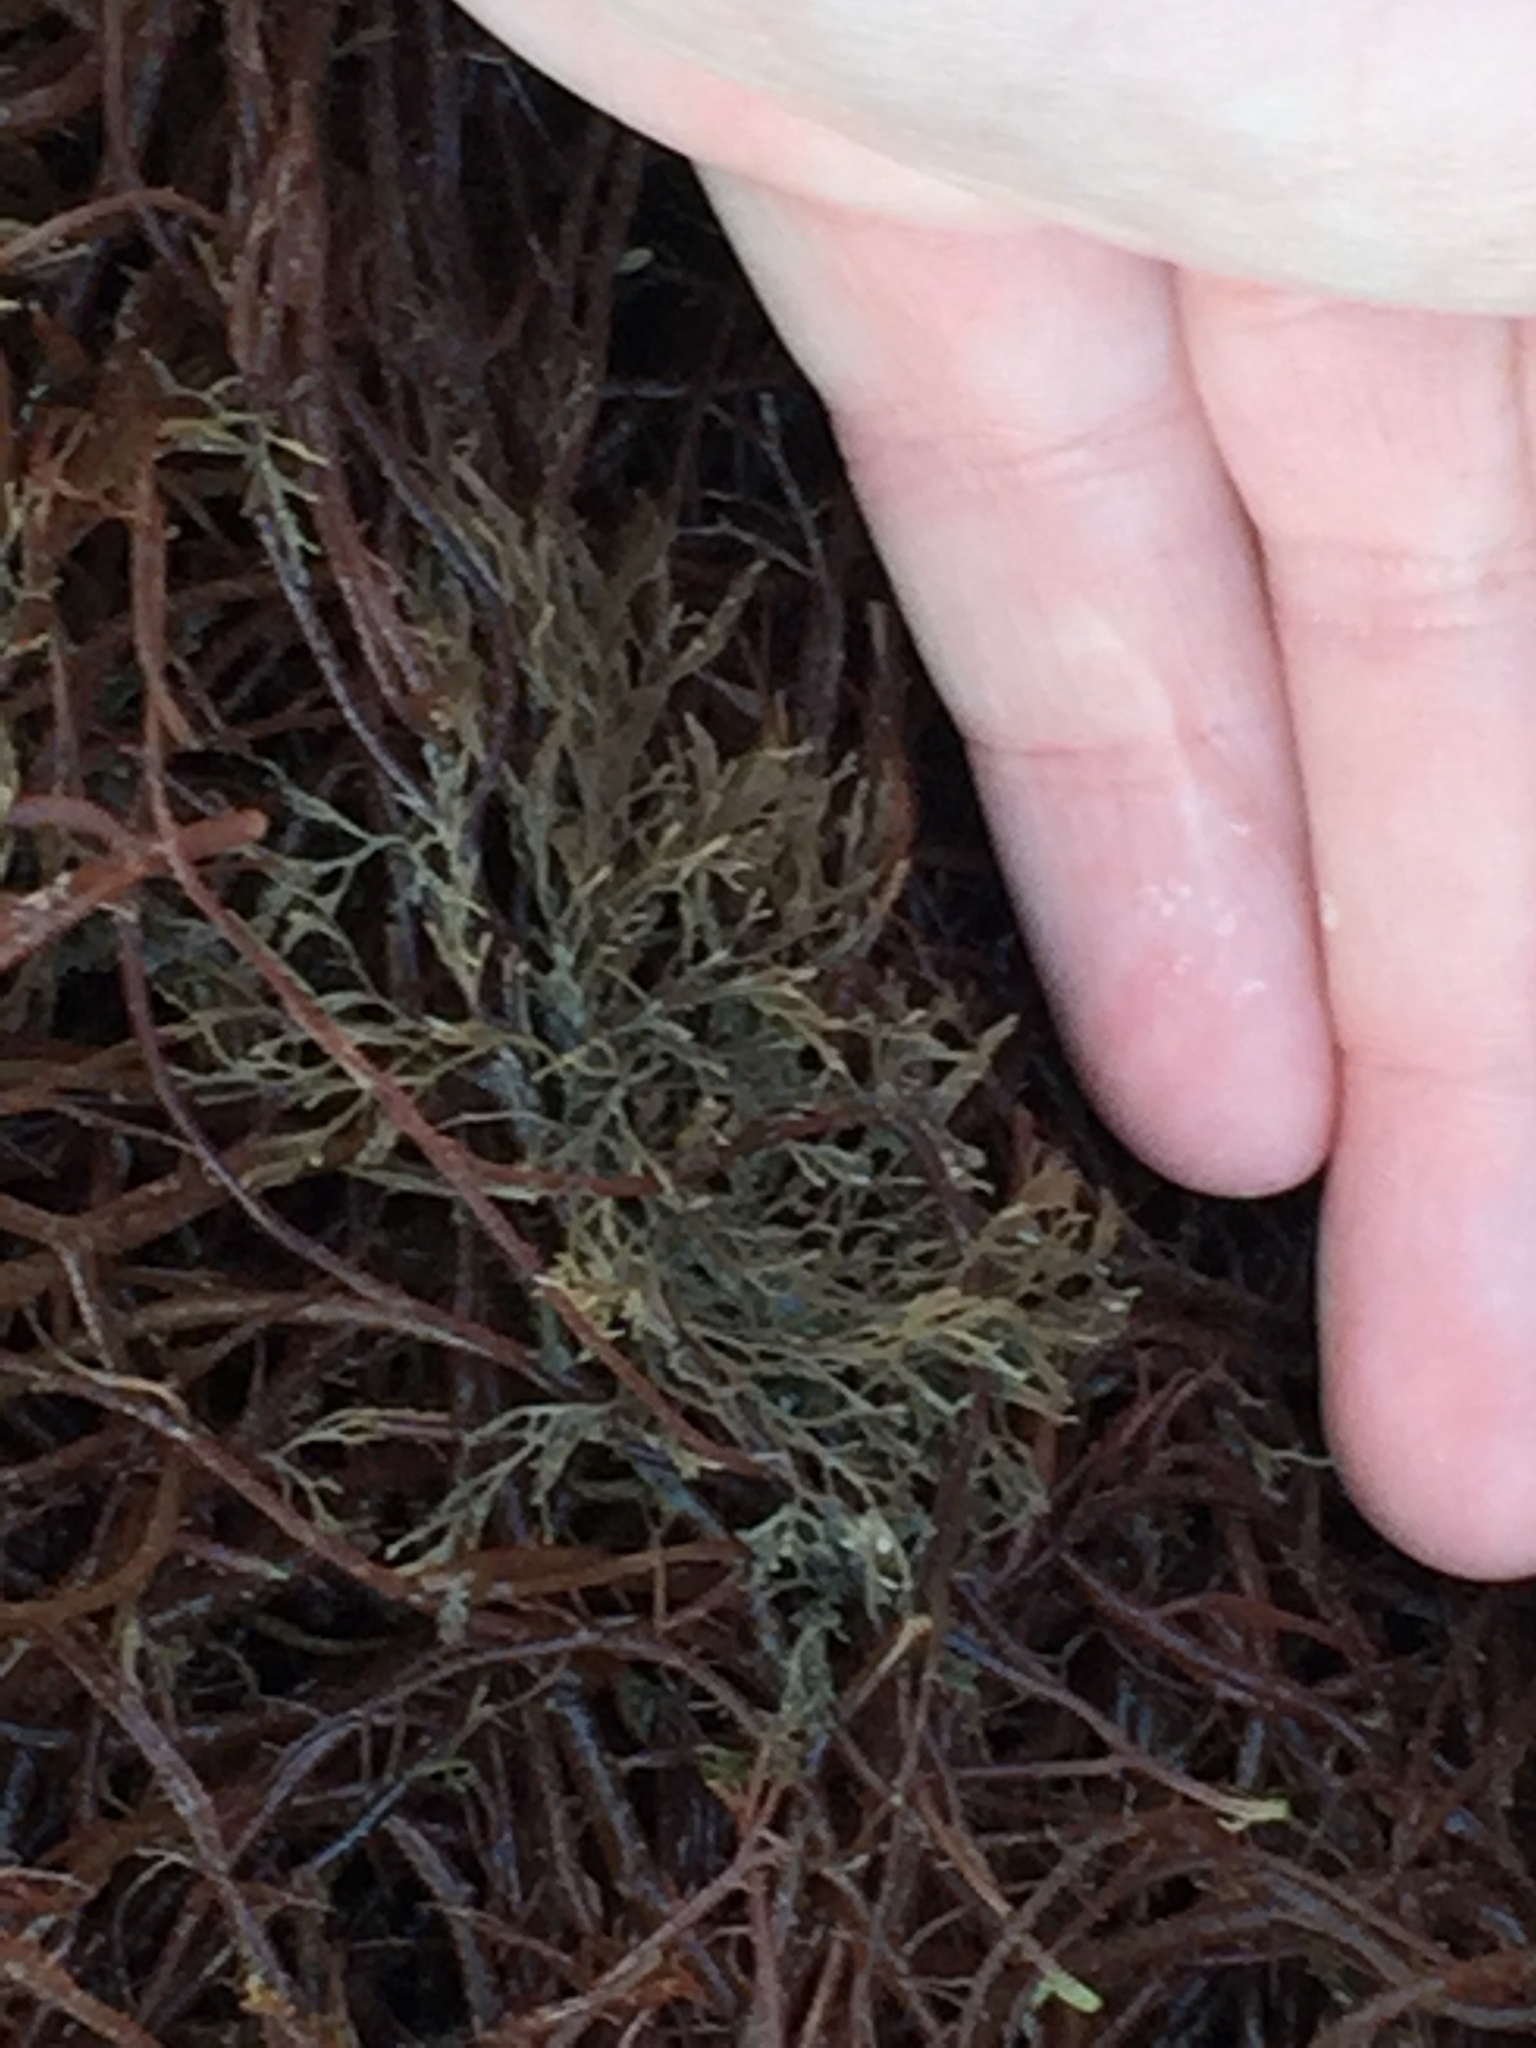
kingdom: Animalia
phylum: Bryozoa
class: Gymnolaemata
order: Cheilostomatida
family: Bugulidae
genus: Bugula
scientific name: Bugula neritina
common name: Brown bryozoan
